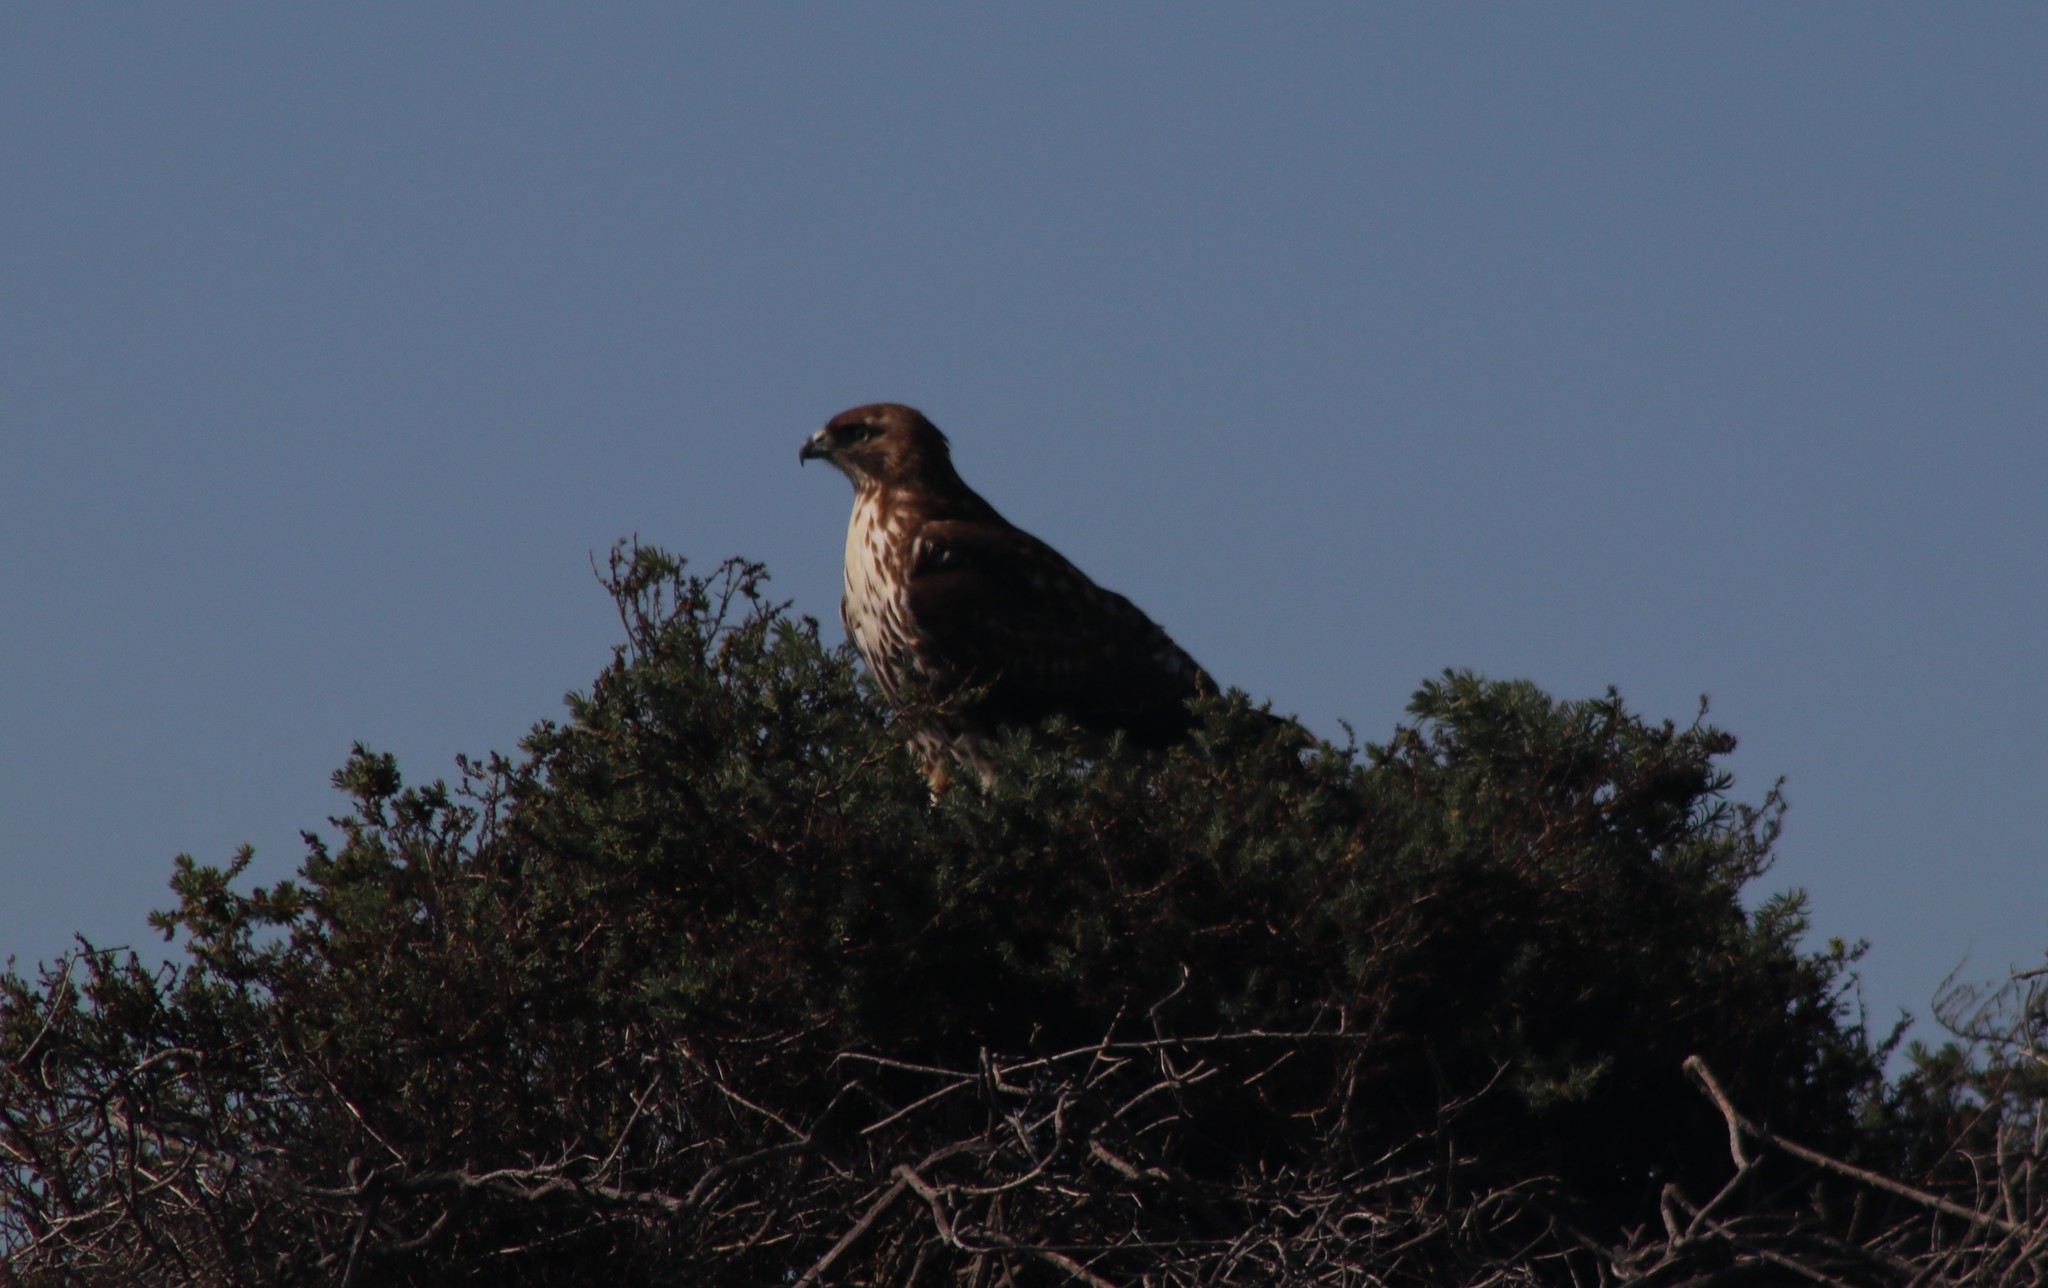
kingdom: Animalia
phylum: Chordata
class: Aves
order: Accipitriformes
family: Accipitridae
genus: Buteo
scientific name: Buteo jamaicensis
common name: Red-tailed hawk
